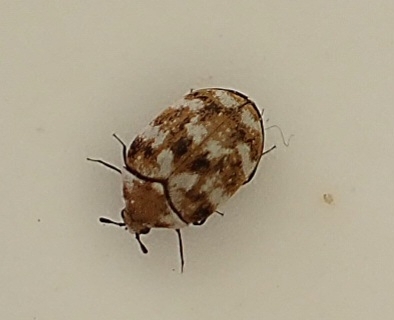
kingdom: Animalia
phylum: Arthropoda
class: Insecta
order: Coleoptera
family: Dermestidae
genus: Anthrenus
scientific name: Anthrenus verbasci
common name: Varied carpet beetle
